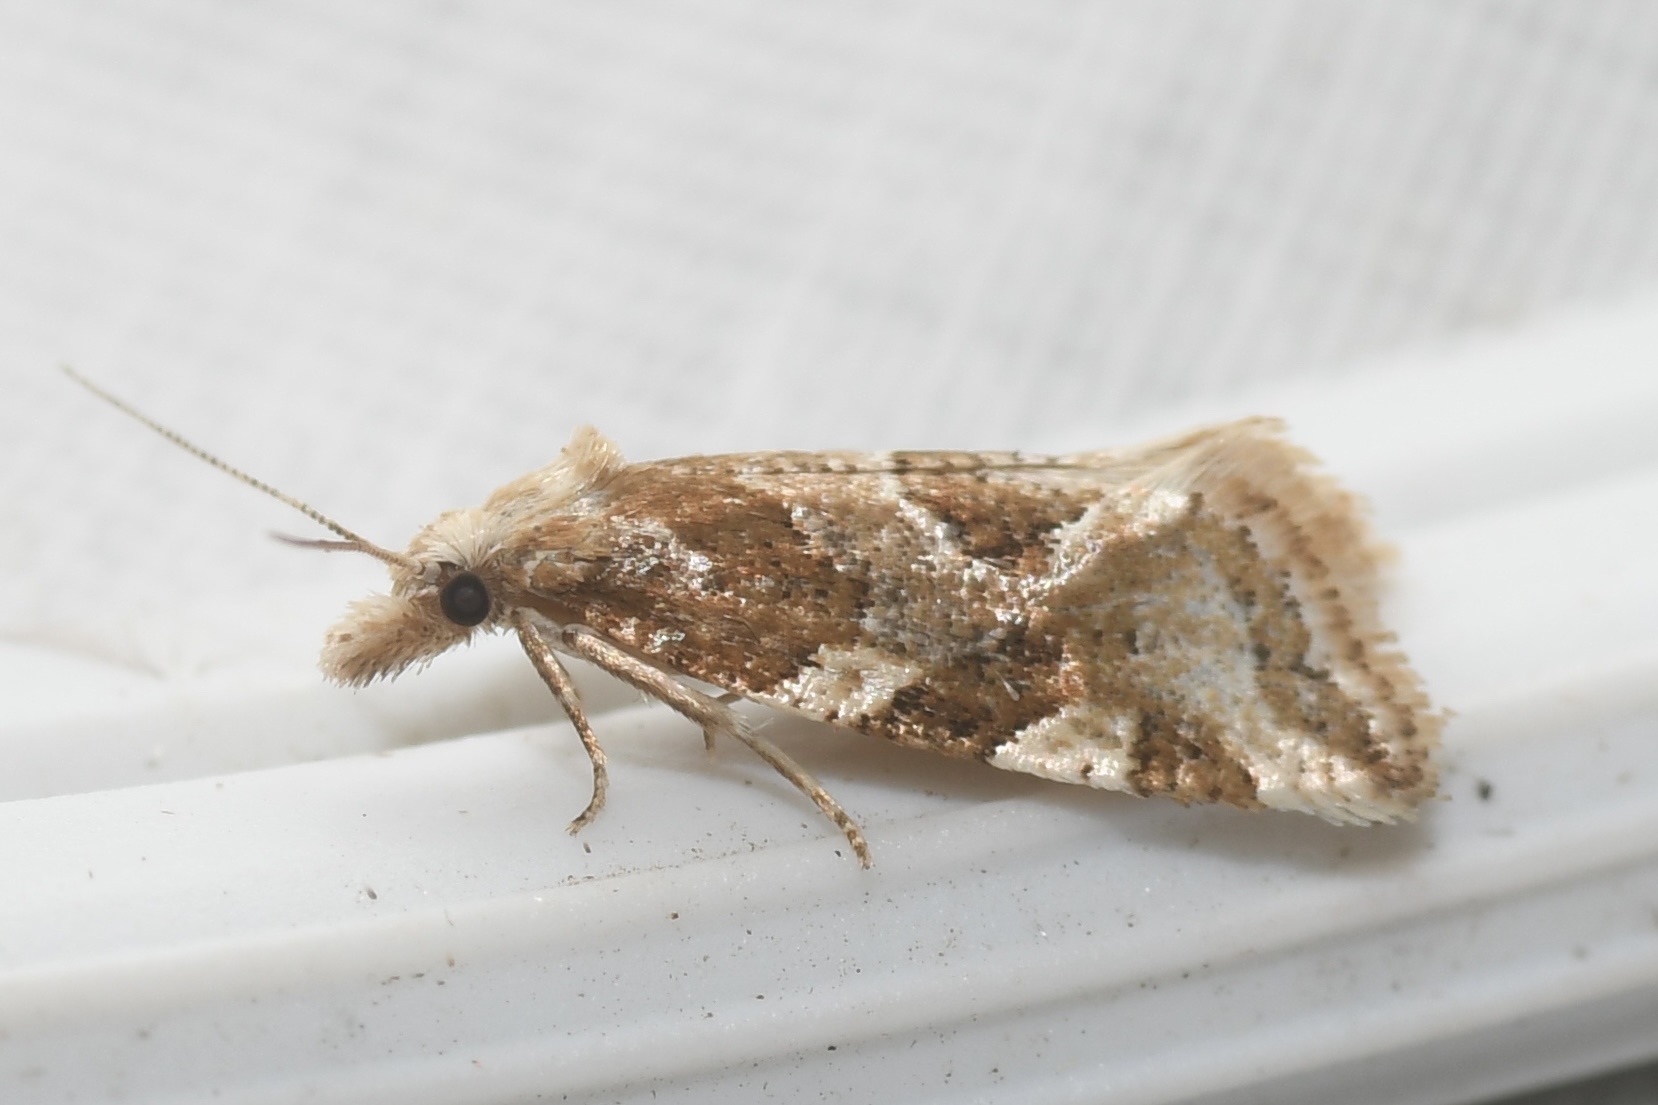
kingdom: Animalia
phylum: Arthropoda
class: Insecta
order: Lepidoptera
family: Tortricidae
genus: Aethes
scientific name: Aethes sexdentata
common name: Six-toothed aethes
